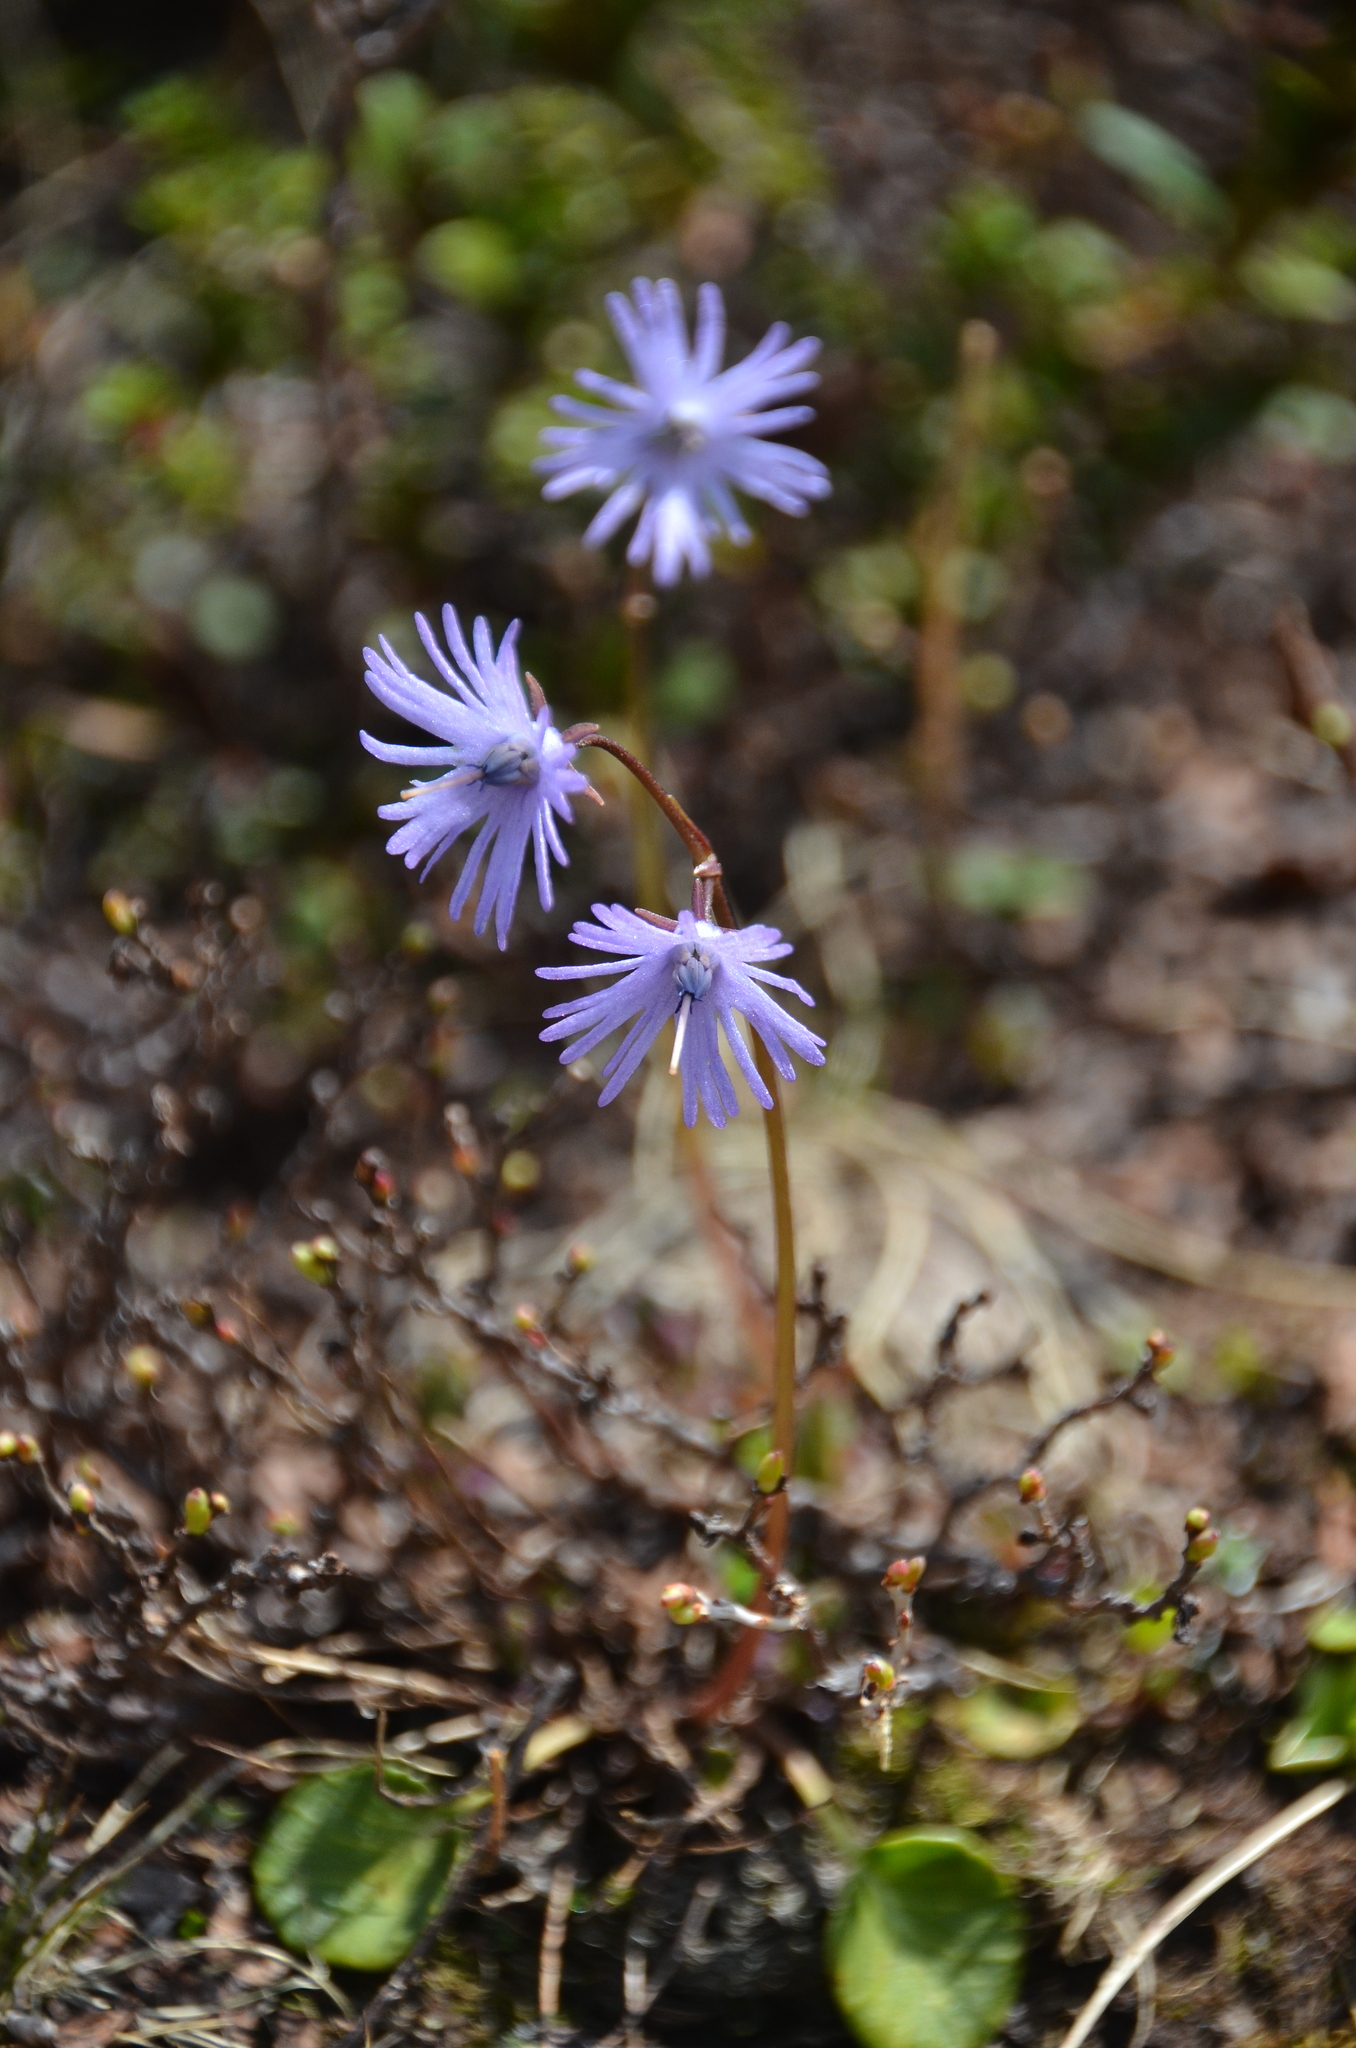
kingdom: Plantae
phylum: Tracheophyta
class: Magnoliopsida
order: Ericales
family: Primulaceae
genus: Soldanella
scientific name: Soldanella alpina
